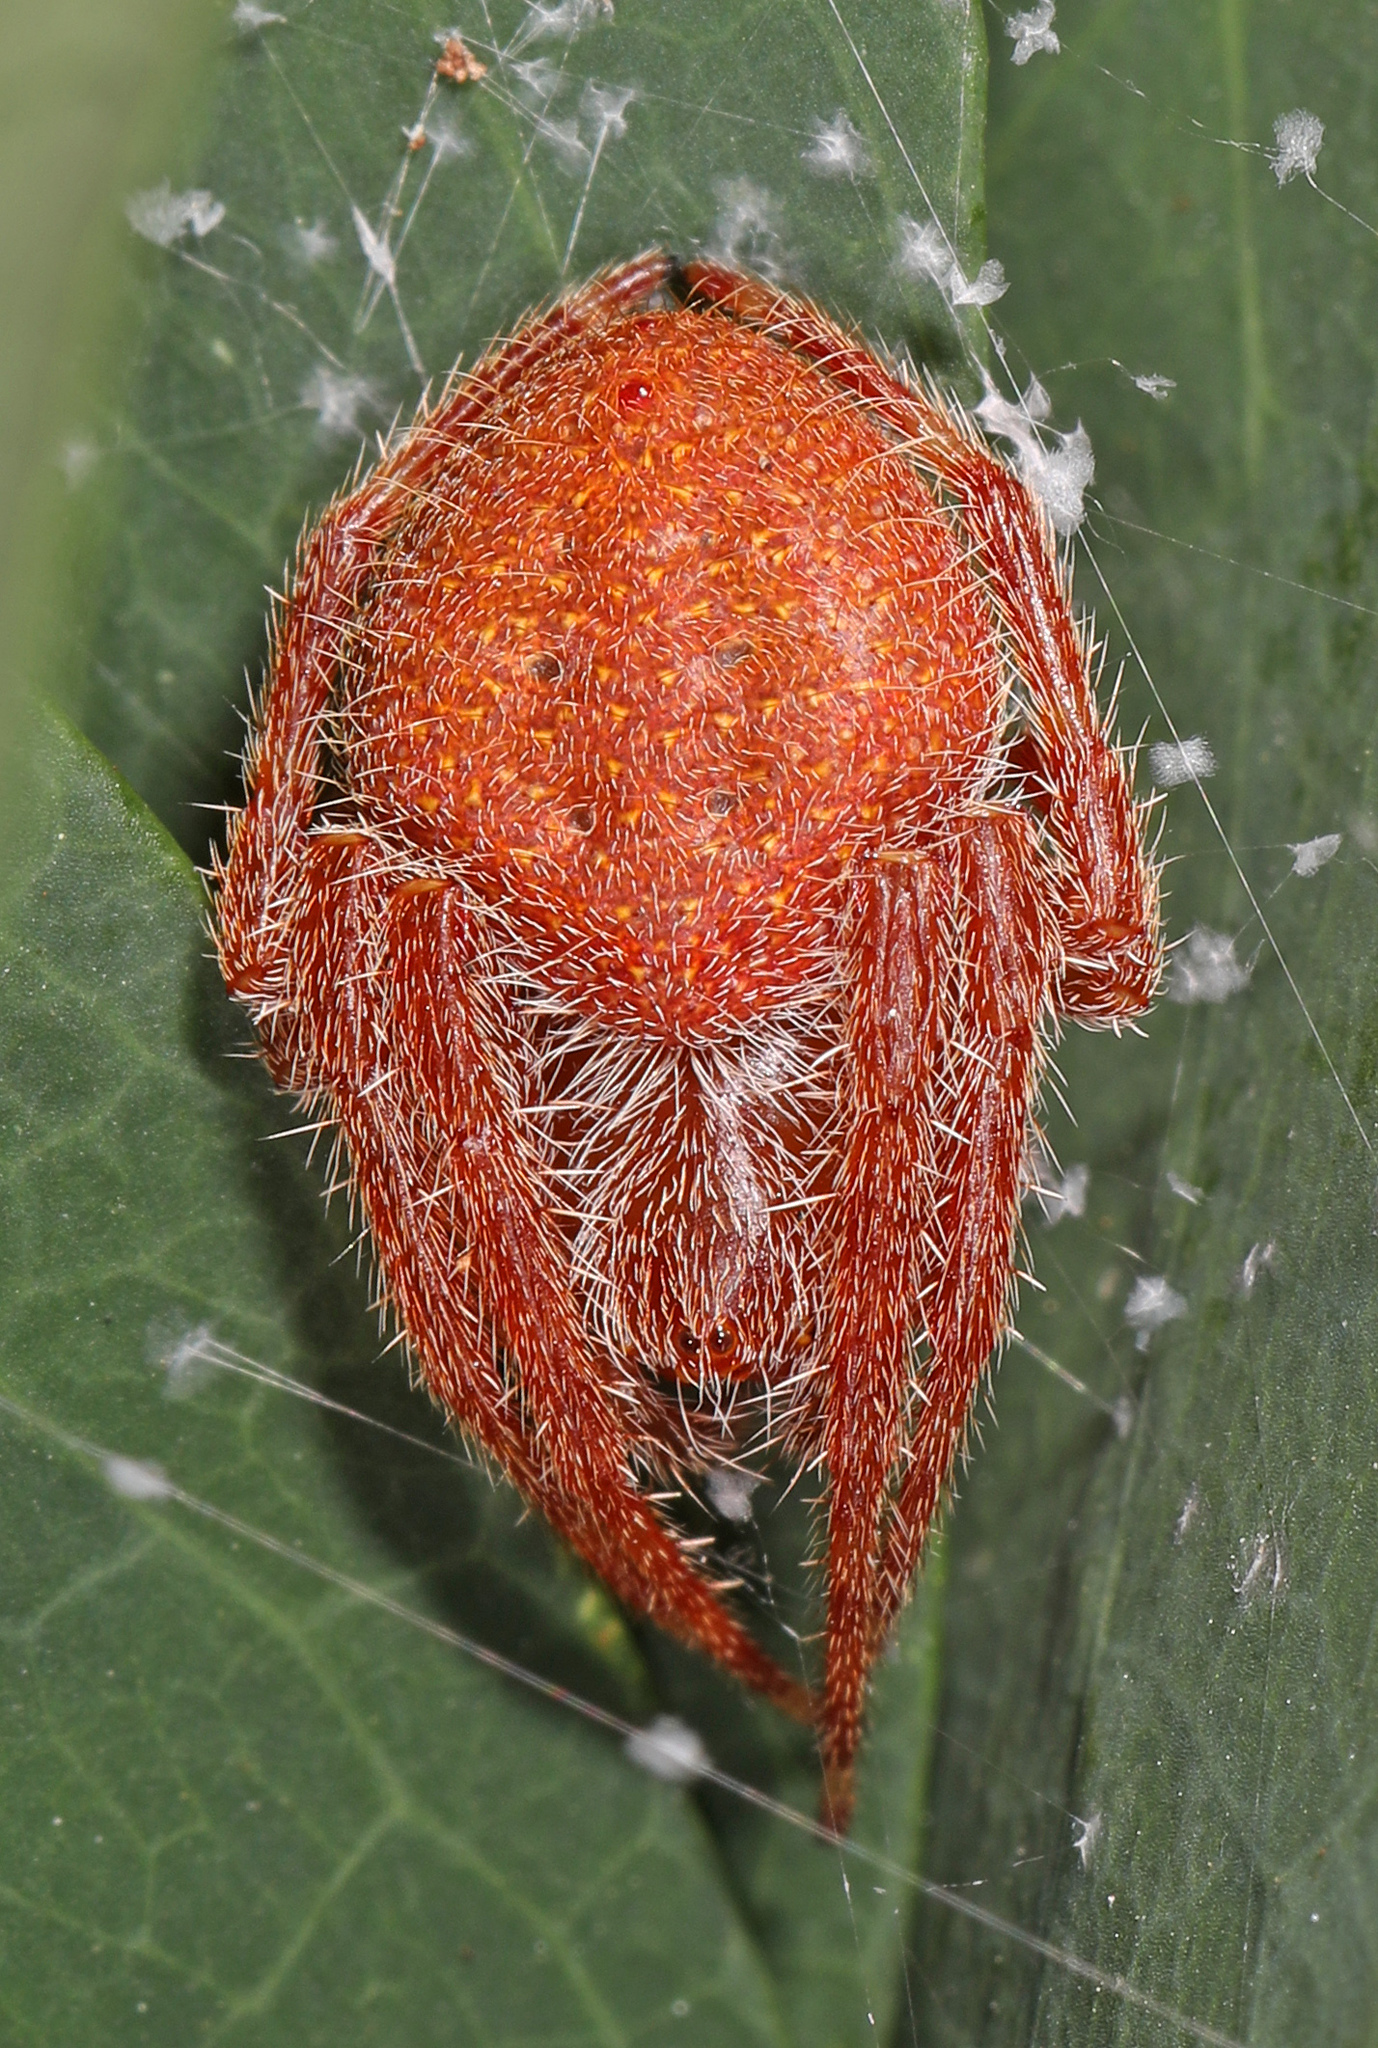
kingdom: Animalia
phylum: Arthropoda
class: Arachnida
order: Araneae
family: Araneidae
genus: Eriophora
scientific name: Eriophora ravilla
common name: Orb weavers
